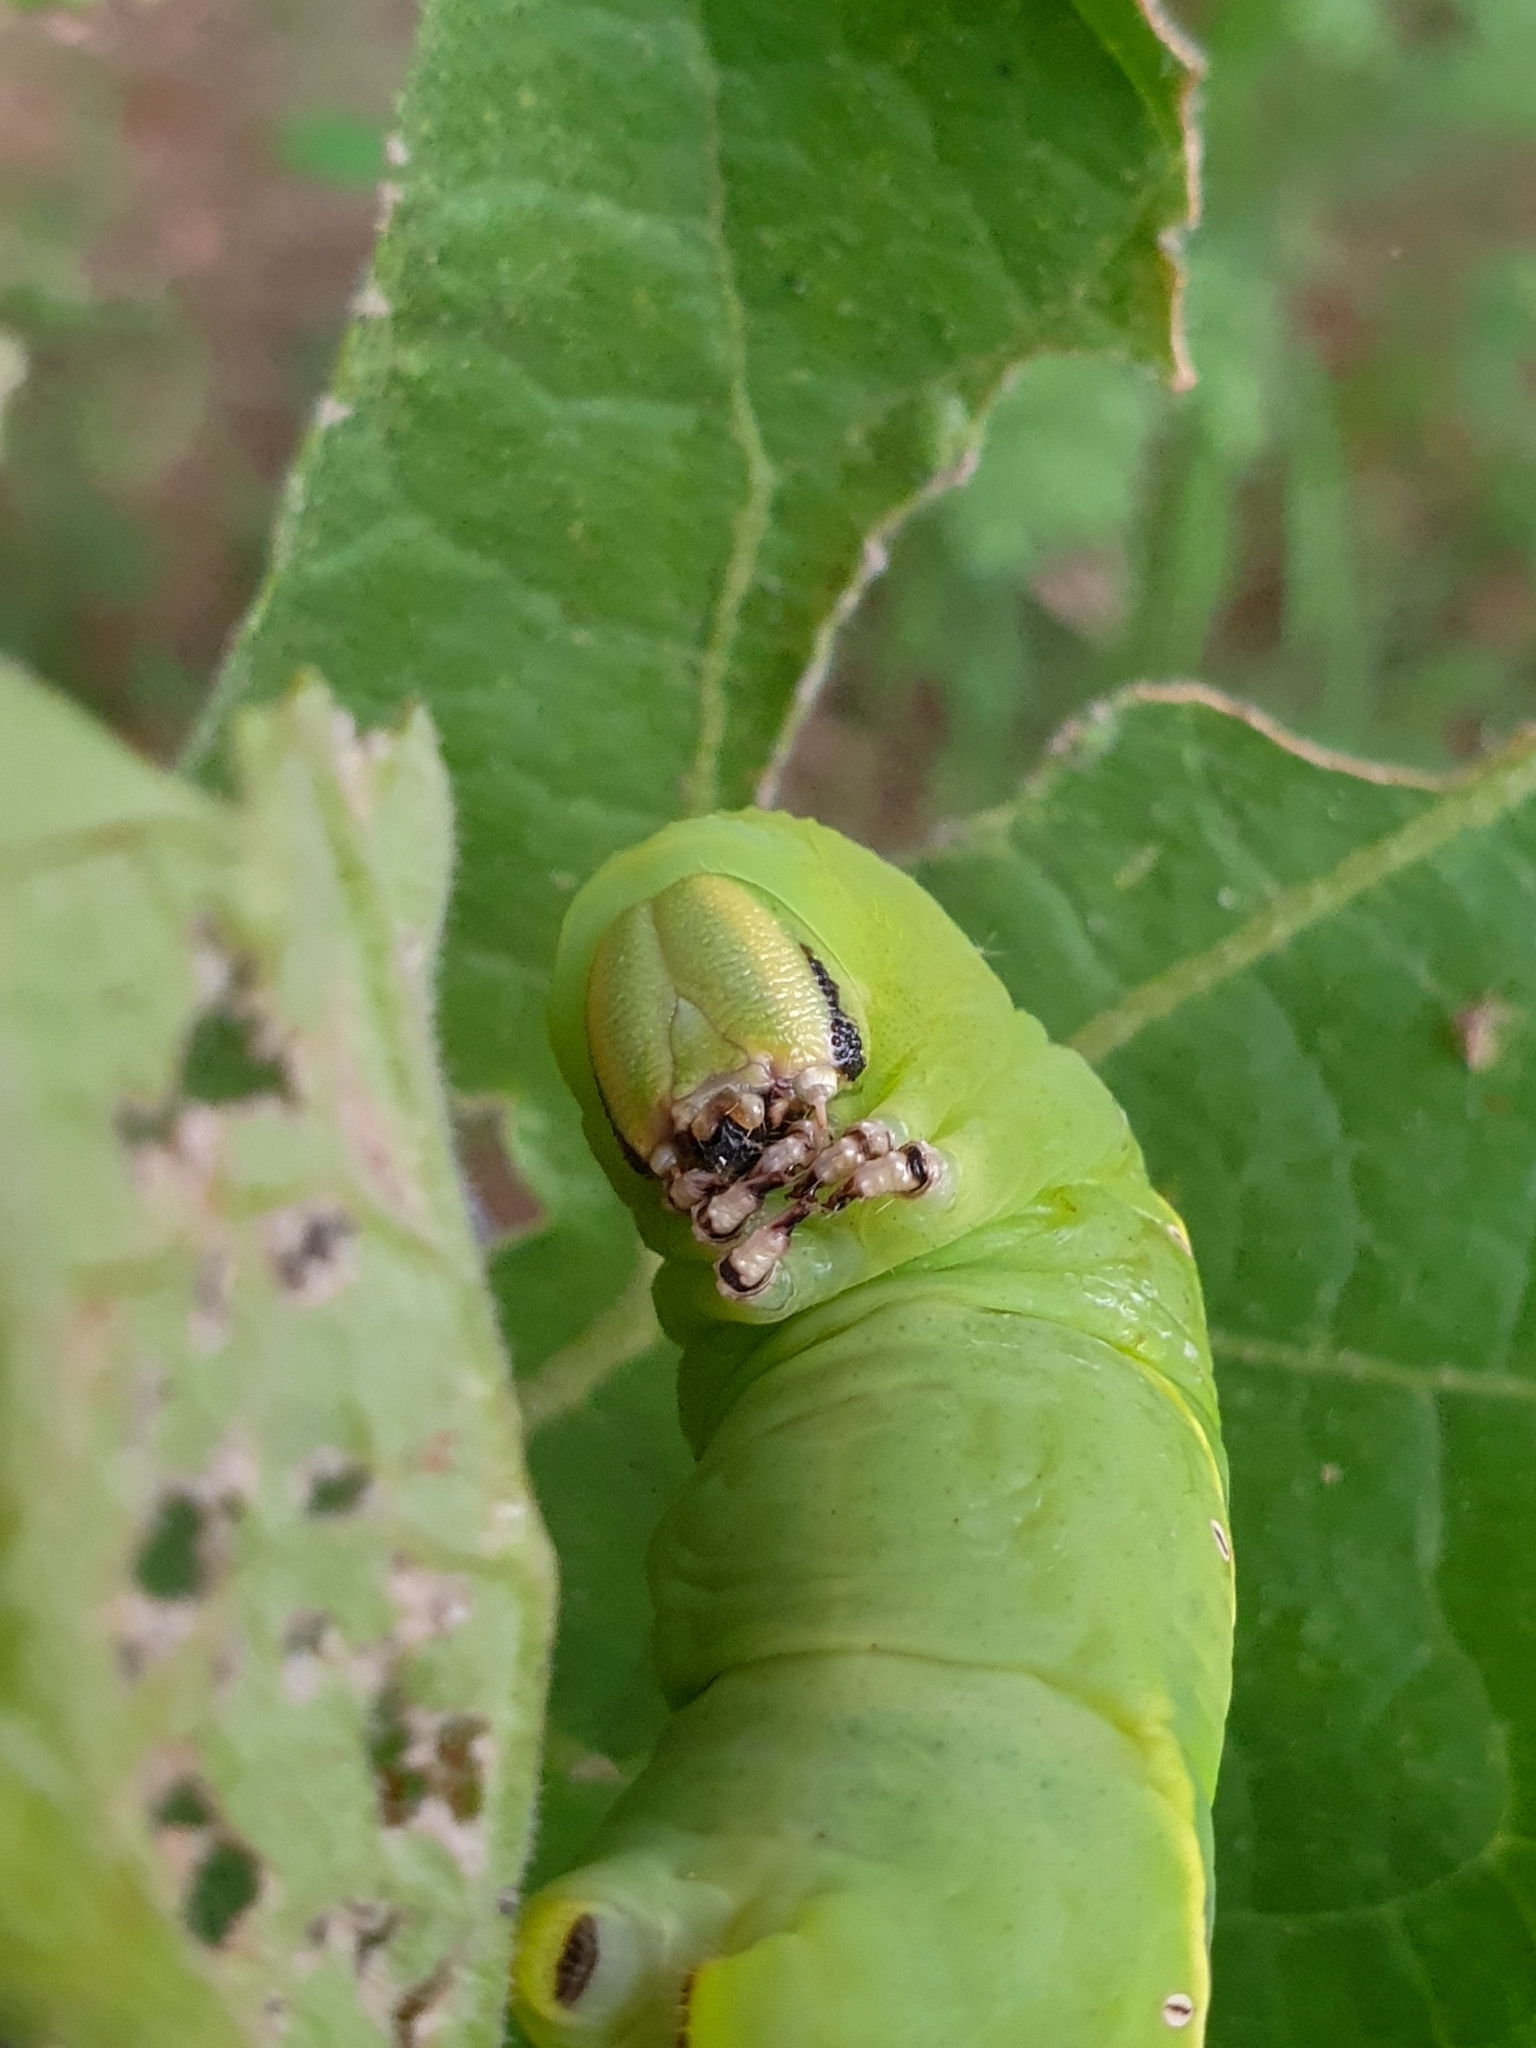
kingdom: Animalia
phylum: Arthropoda
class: Insecta
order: Lepidoptera
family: Sphingidae
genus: Acherontia
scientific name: Acherontia lachesis
